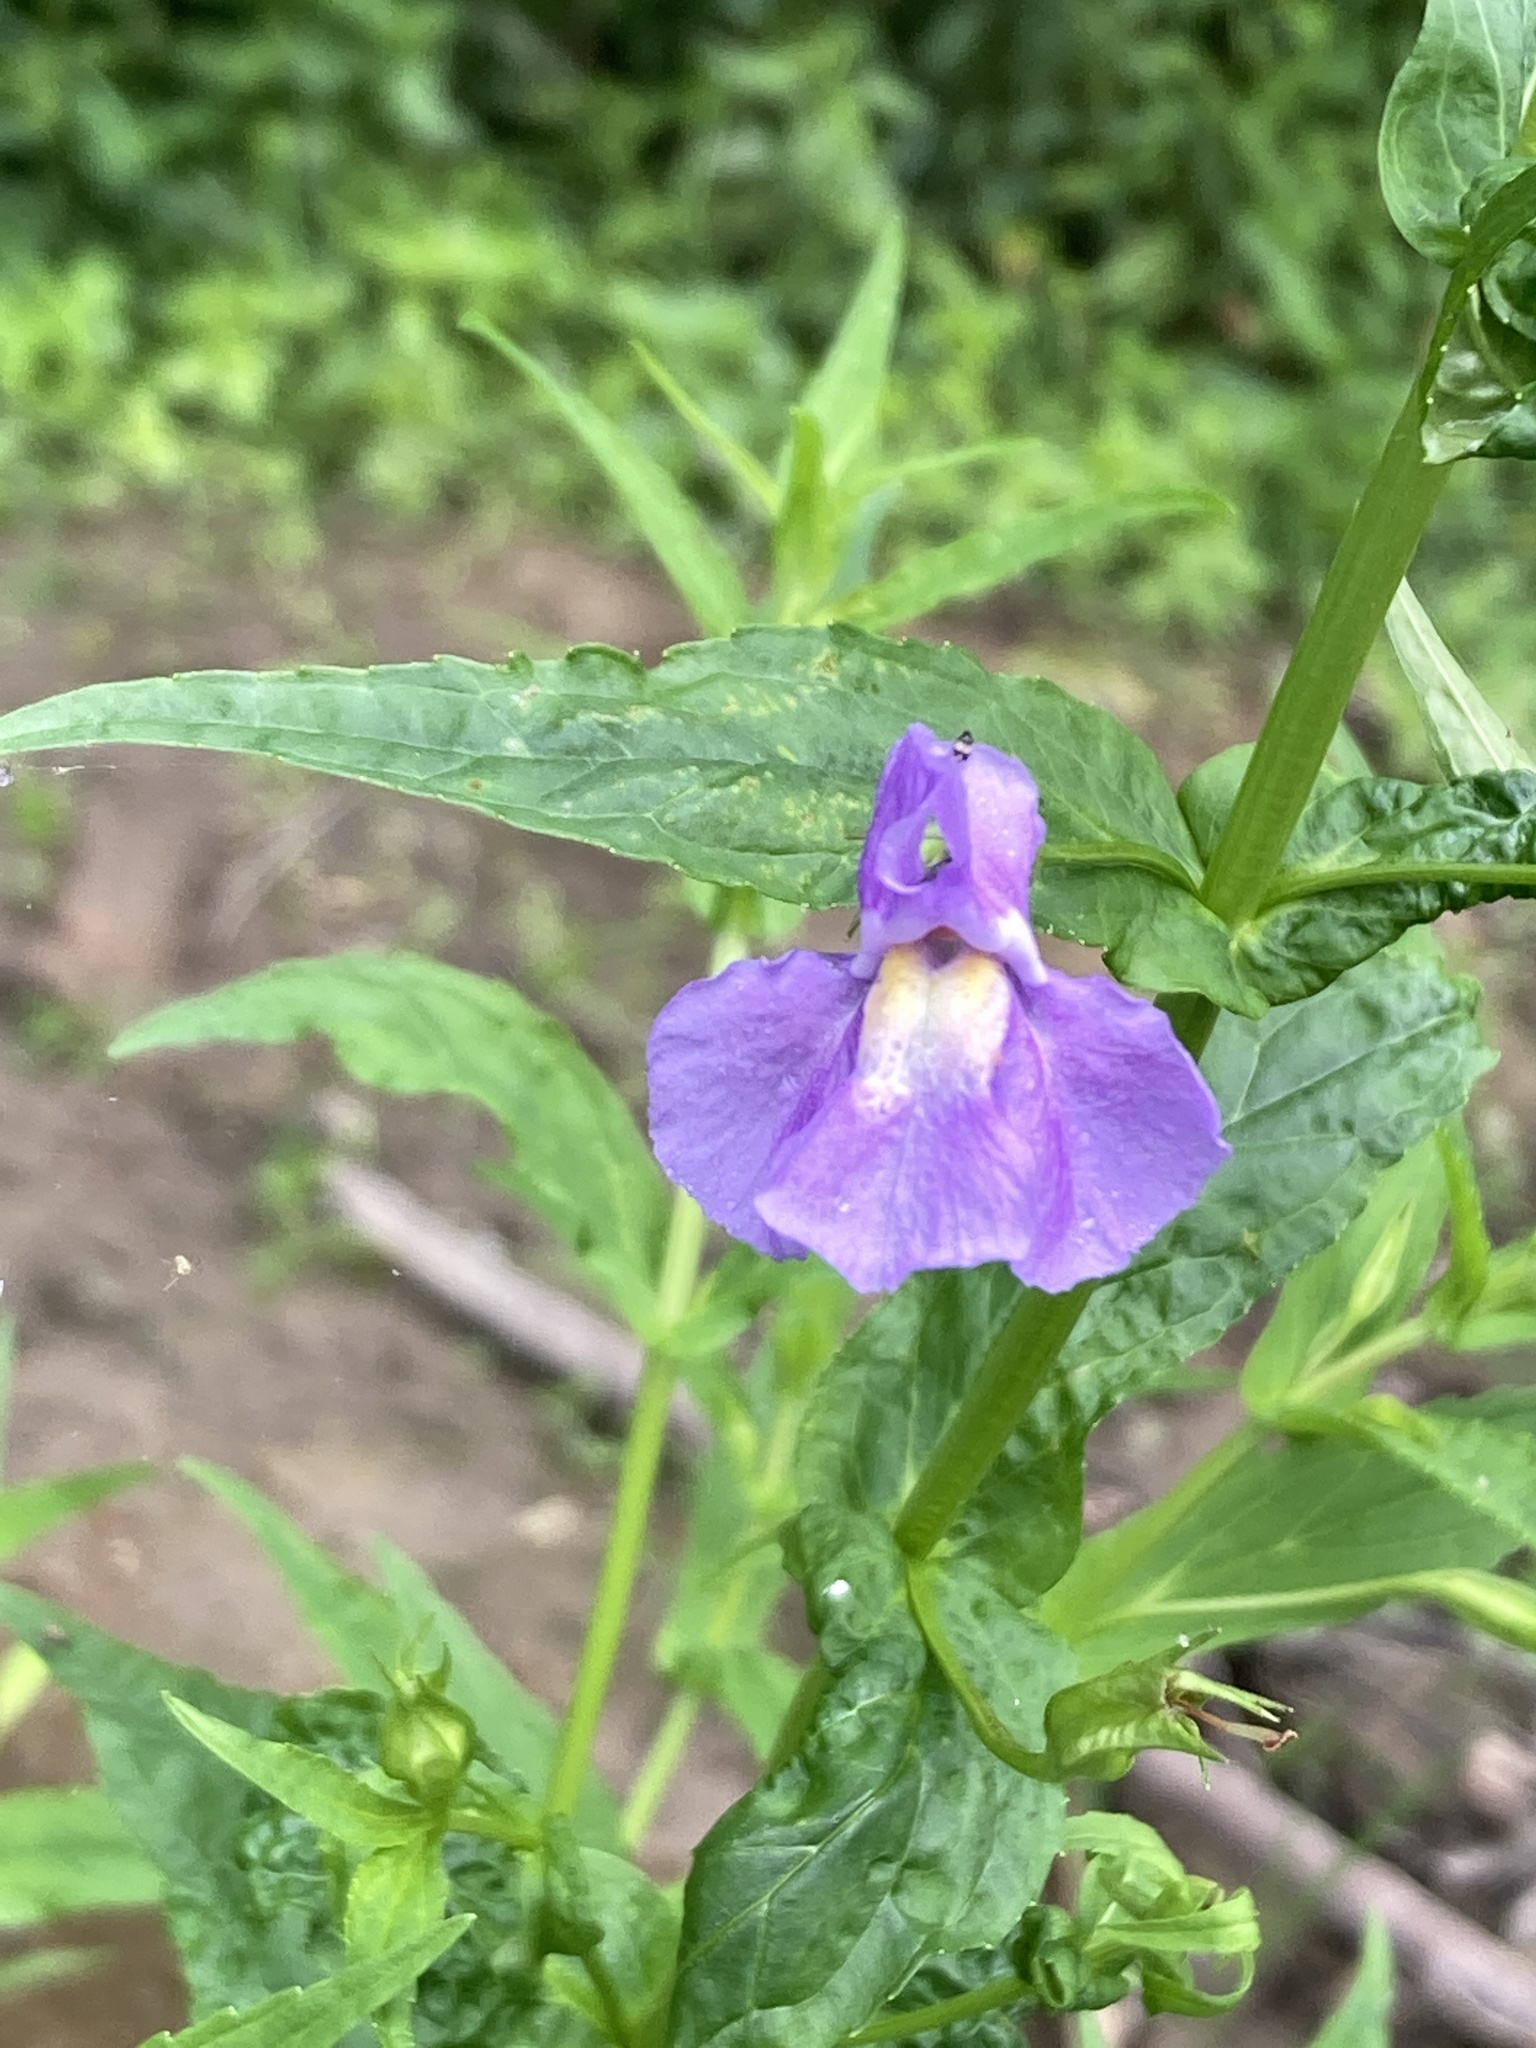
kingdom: Plantae
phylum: Tracheophyta
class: Magnoliopsida
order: Lamiales
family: Phrymaceae
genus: Mimulus
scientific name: Mimulus ringens
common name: Allegheny monkeyflower
